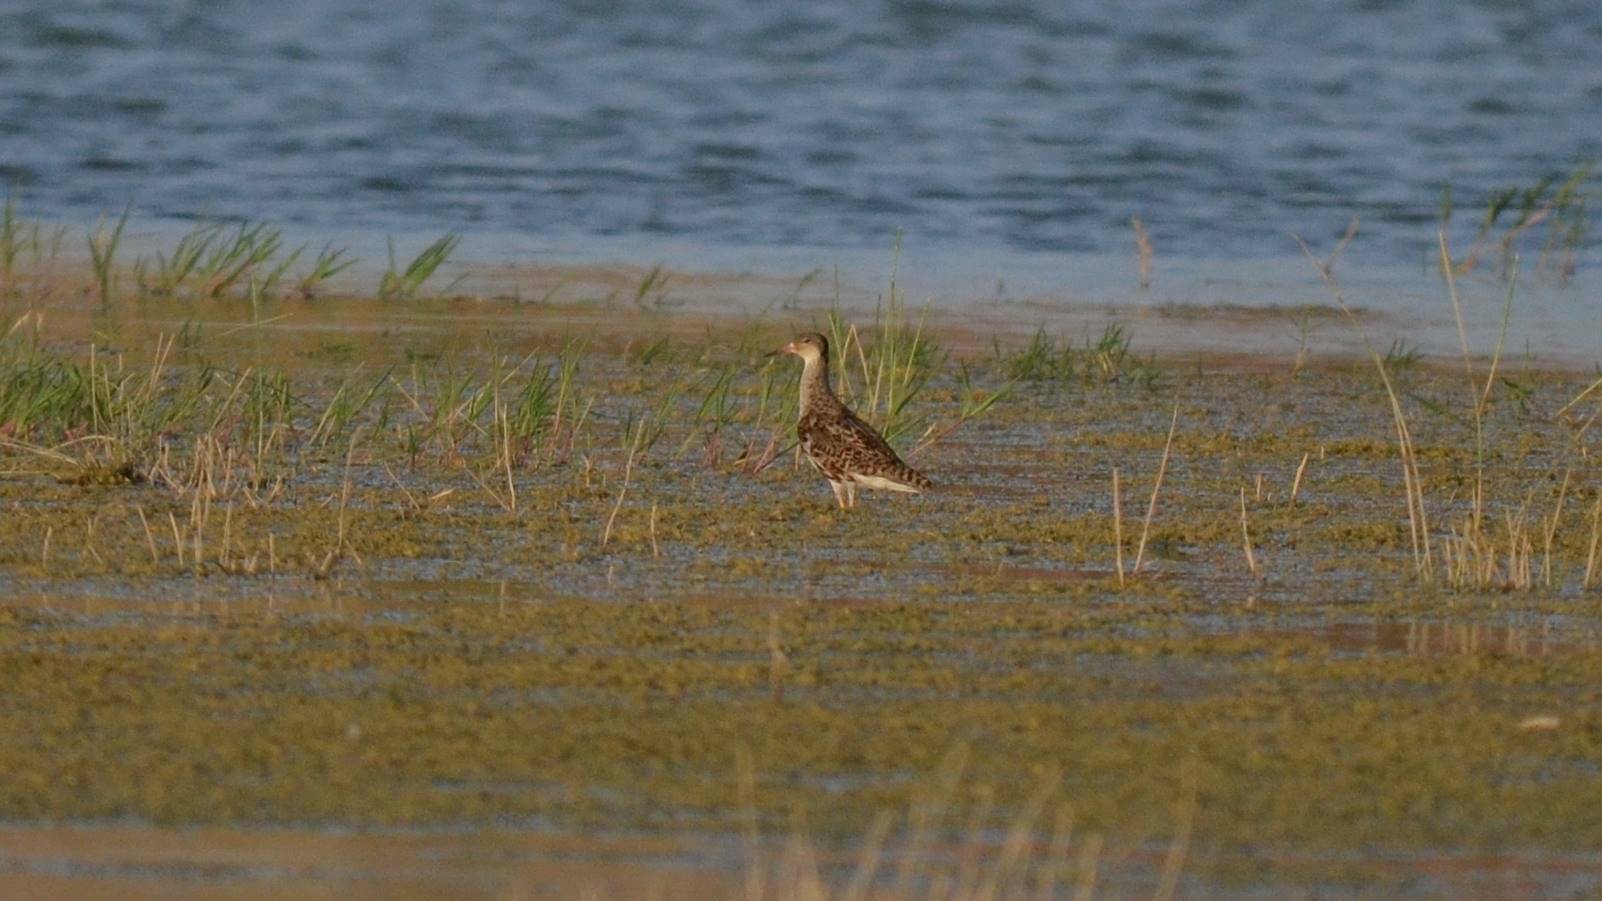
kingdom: Animalia
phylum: Chordata
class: Aves
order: Charadriiformes
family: Scolopacidae
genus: Calidris
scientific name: Calidris pugnax
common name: Ruff
